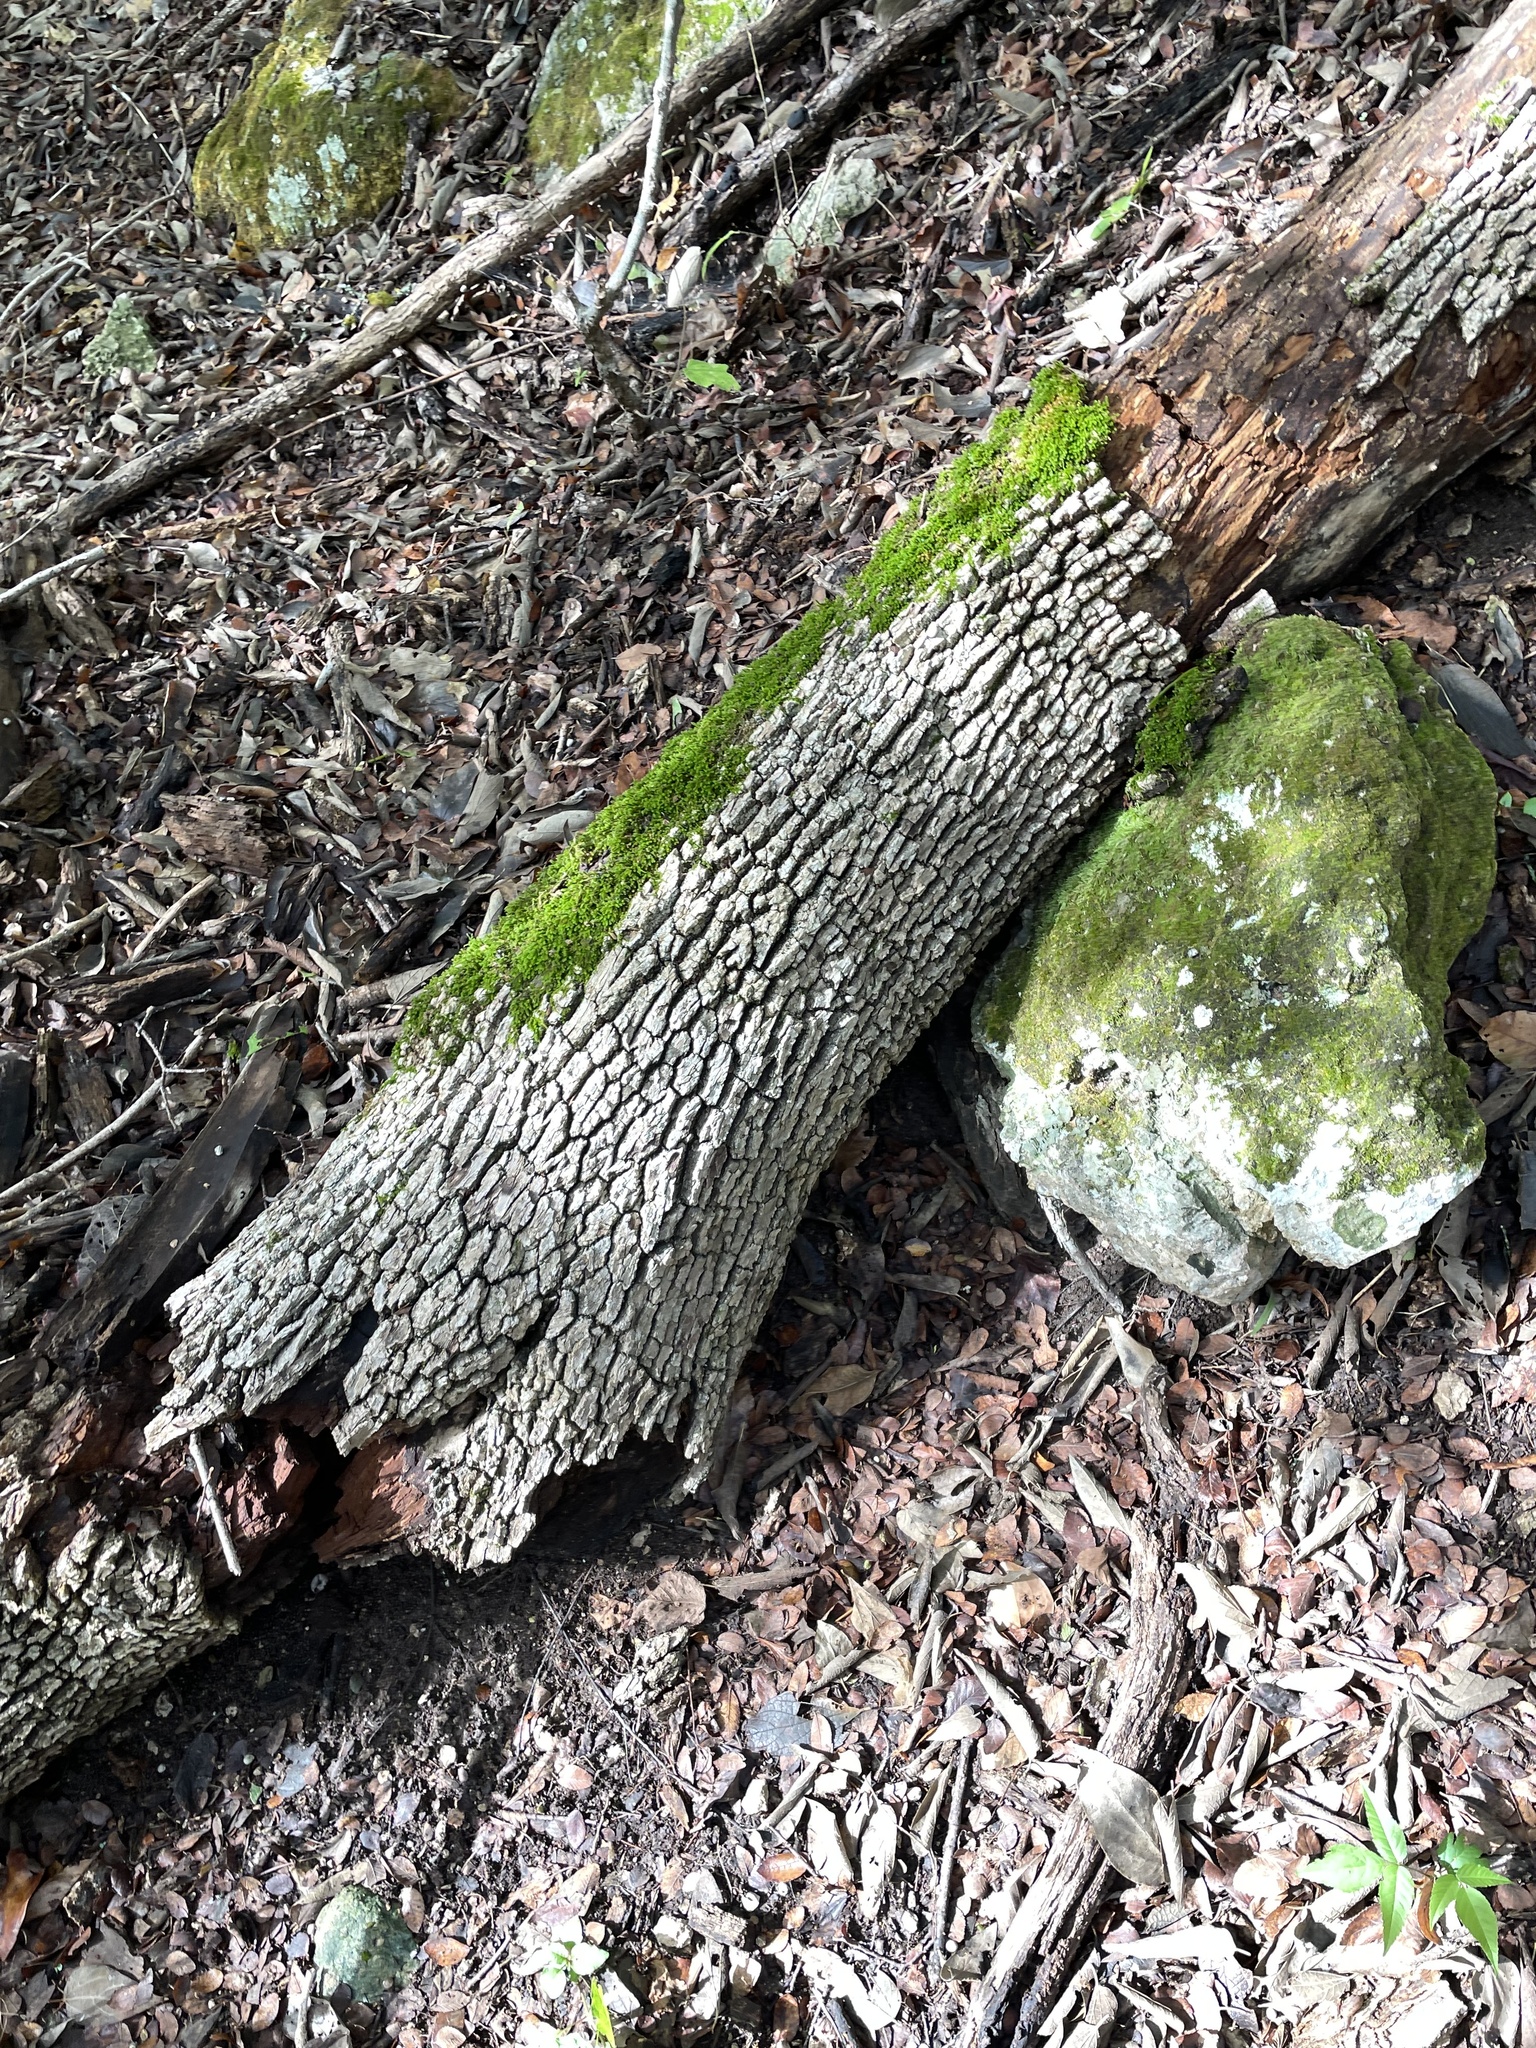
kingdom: Plantae
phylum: Tracheophyta
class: Magnoliopsida
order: Lamiales
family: Oleaceae
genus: Fraxinus
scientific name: Fraxinus albicans
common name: Texas ash
